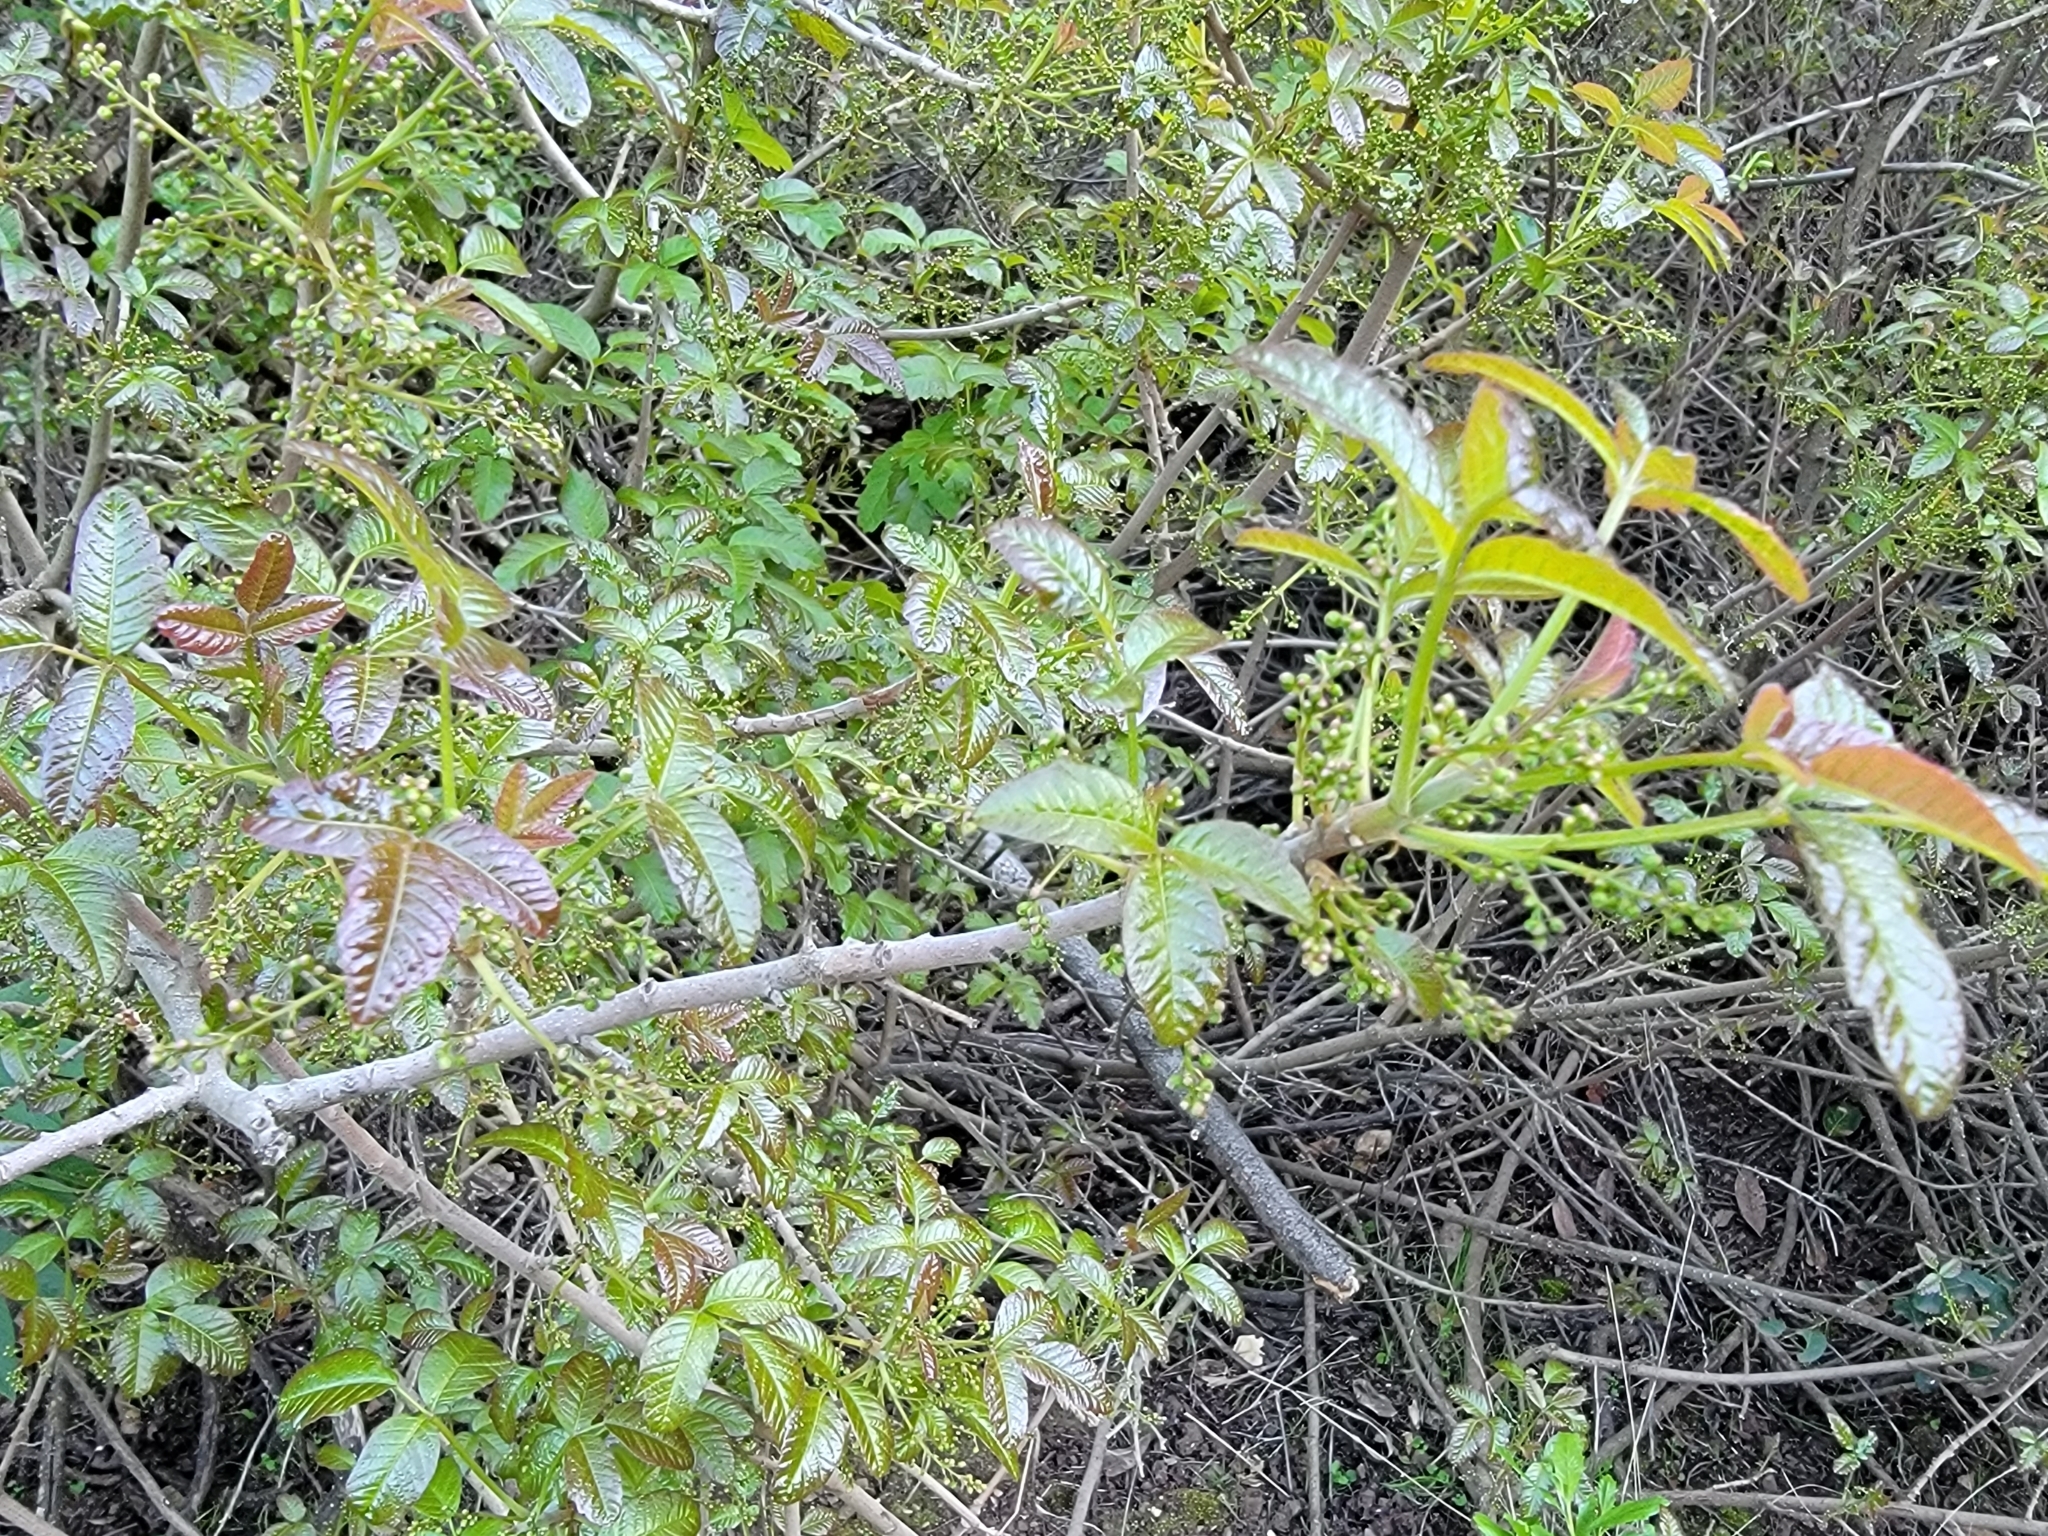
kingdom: Plantae
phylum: Tracheophyta
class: Magnoliopsida
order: Sapindales
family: Anacardiaceae
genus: Toxicodendron
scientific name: Toxicodendron diversilobum
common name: Pacific poison-oak
